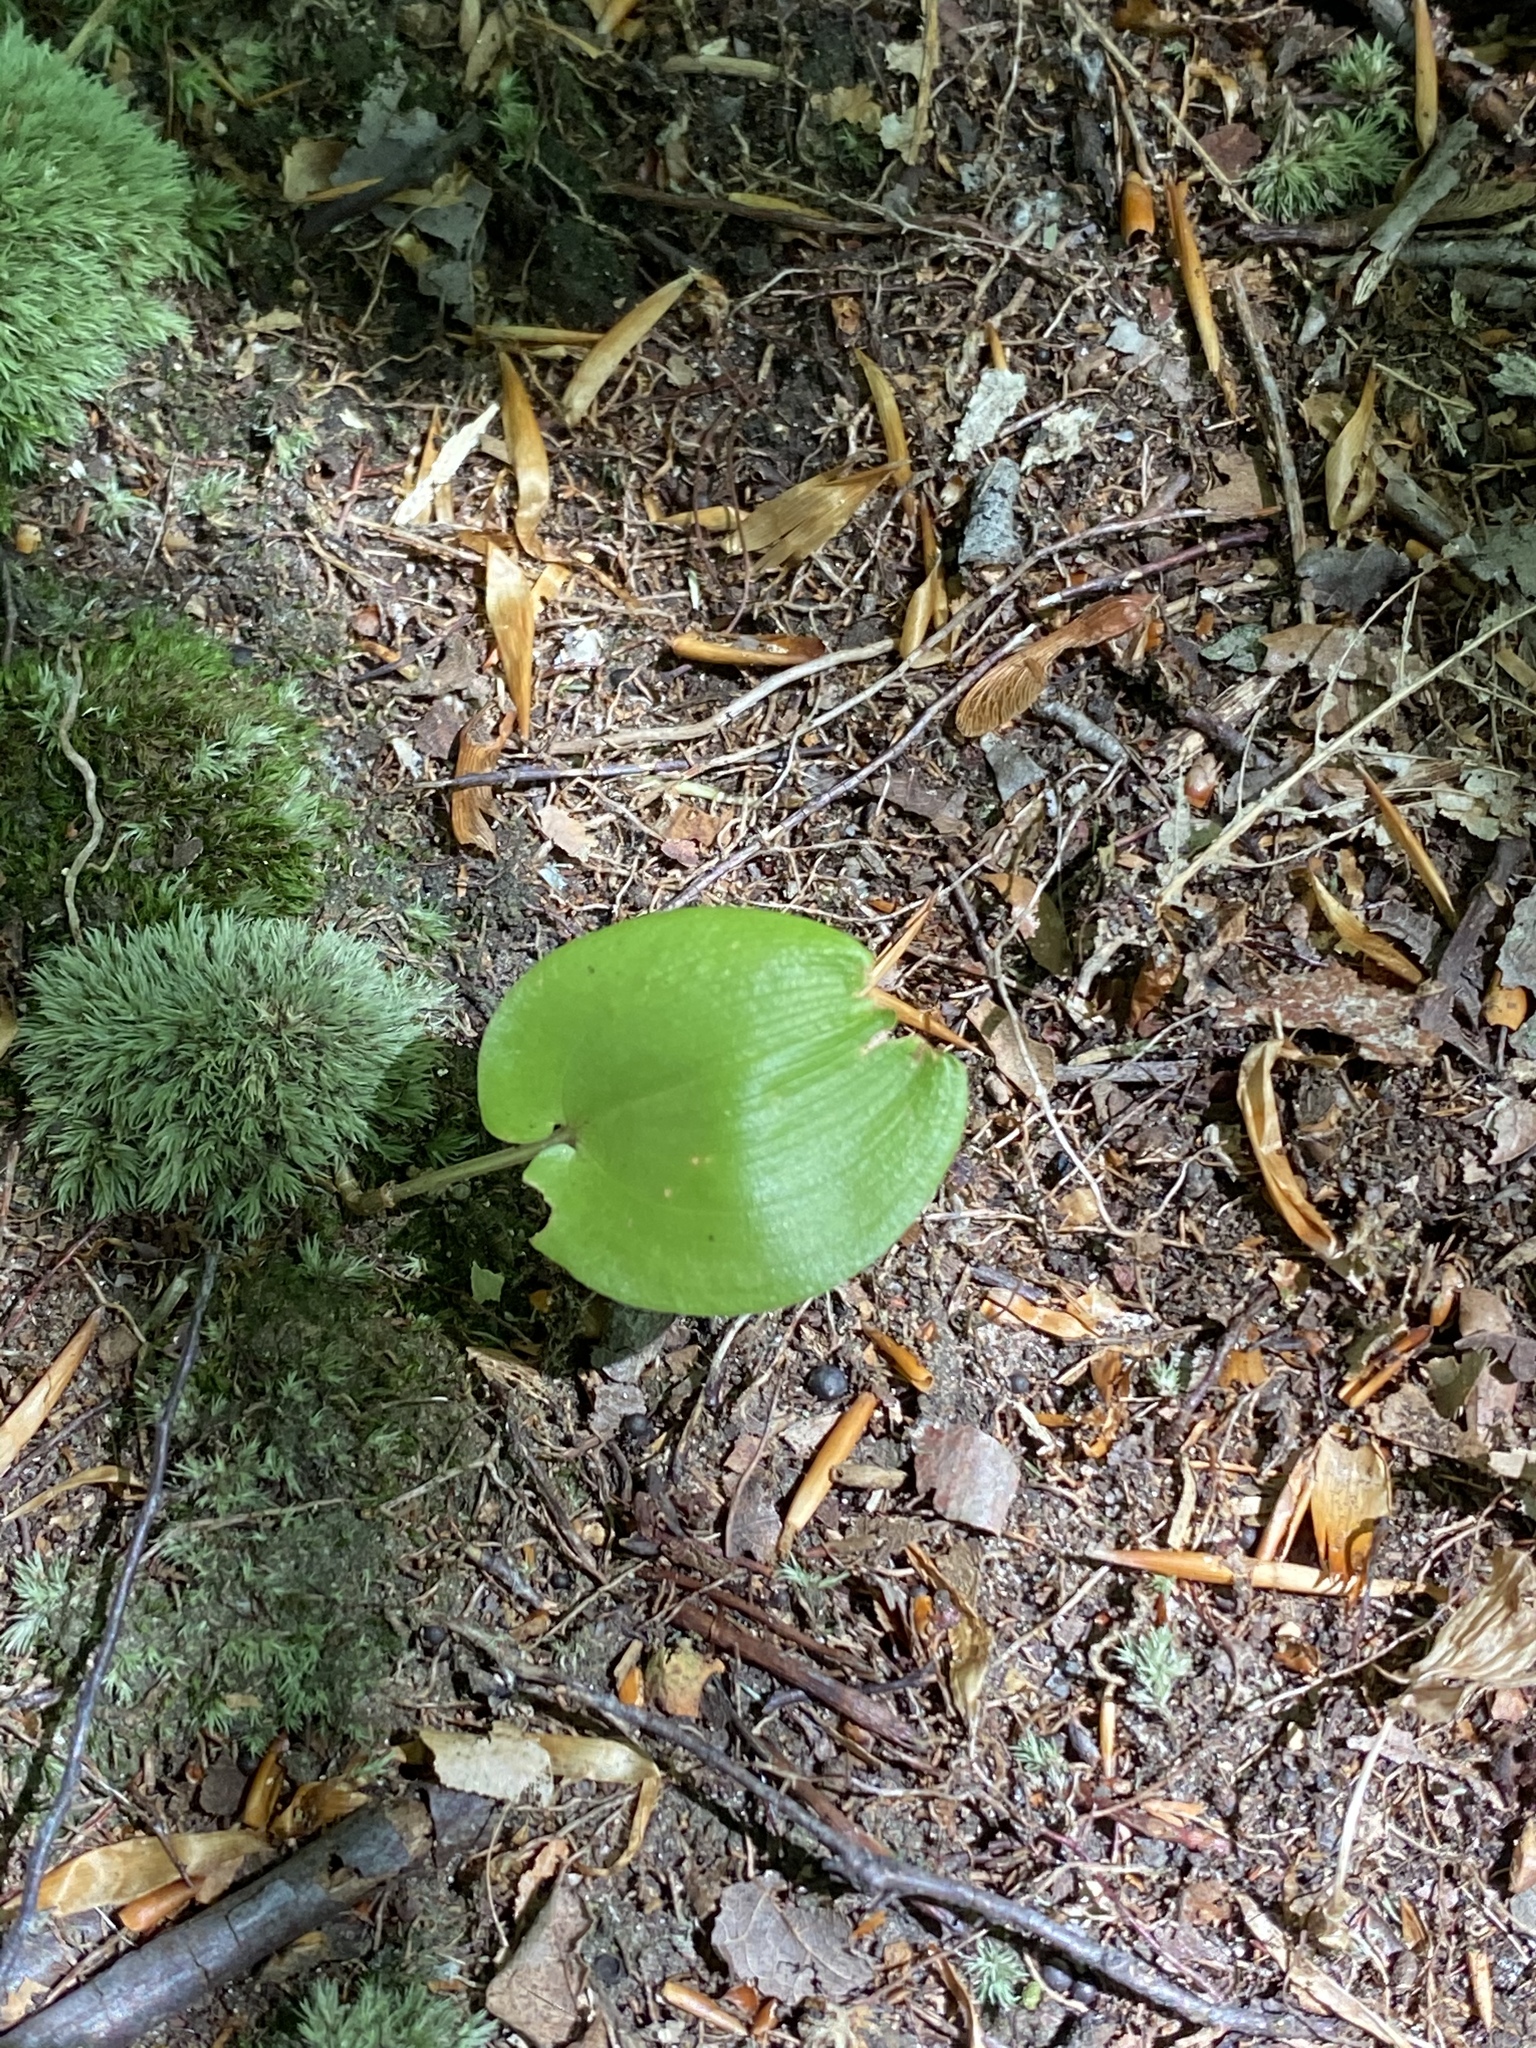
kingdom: Plantae
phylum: Tracheophyta
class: Liliopsida
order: Asparagales
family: Asparagaceae
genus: Maianthemum
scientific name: Maianthemum canadense
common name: False lily-of-the-valley
